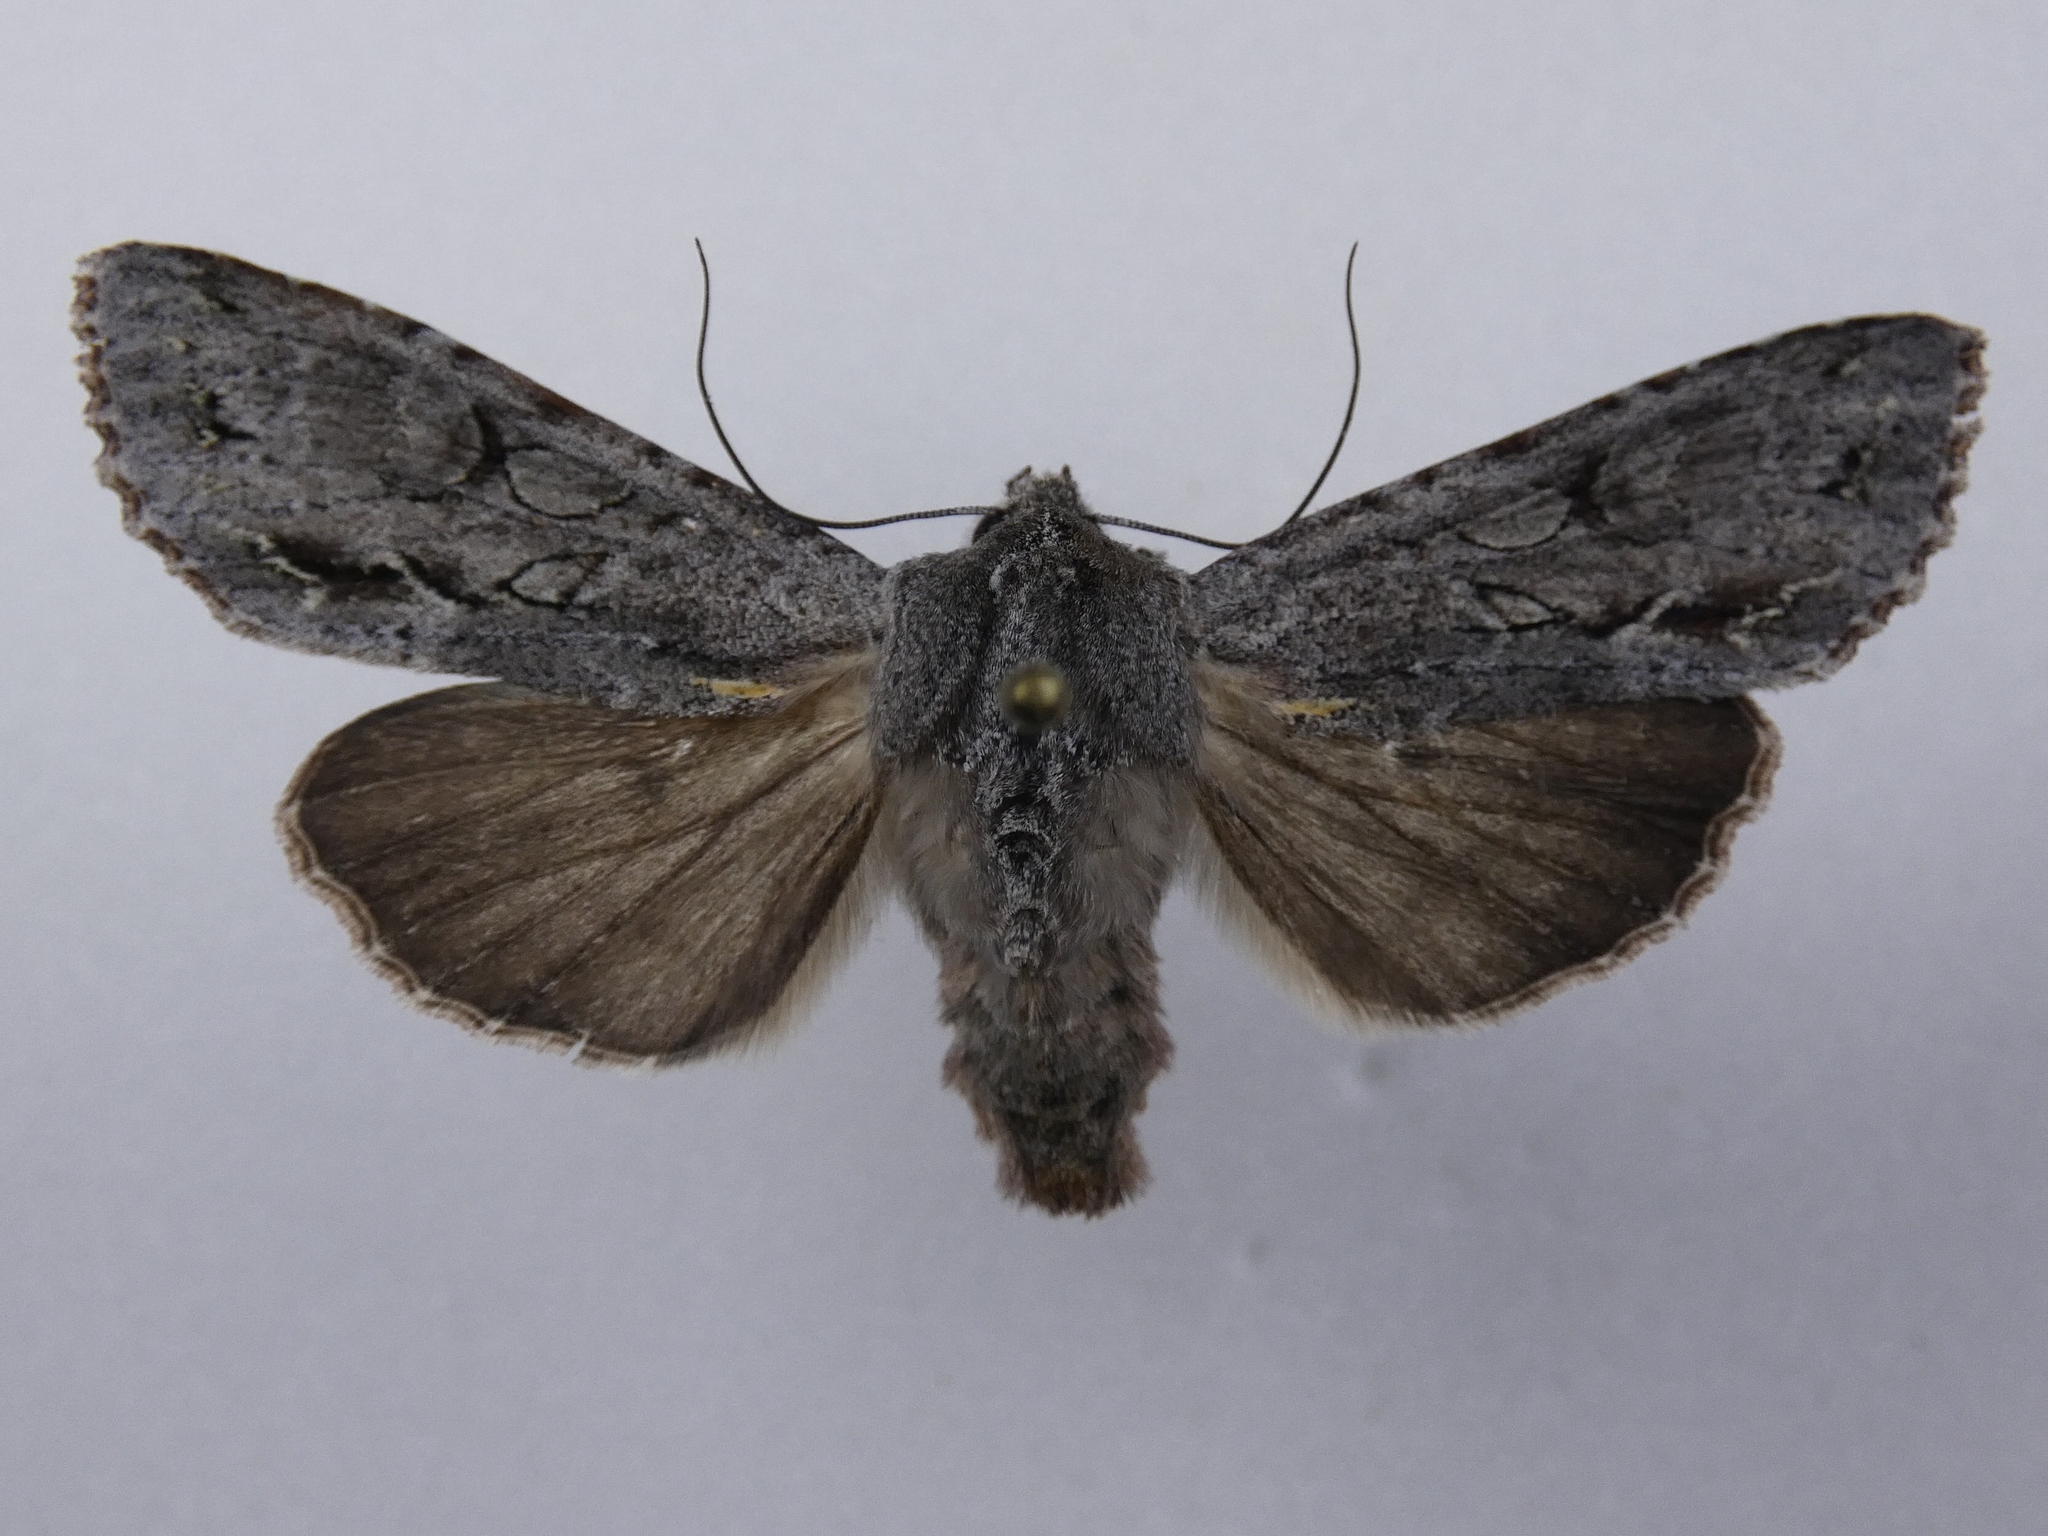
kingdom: Animalia
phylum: Arthropoda
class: Insecta
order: Lepidoptera
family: Noctuidae
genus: Ichneutica
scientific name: Ichneutica
